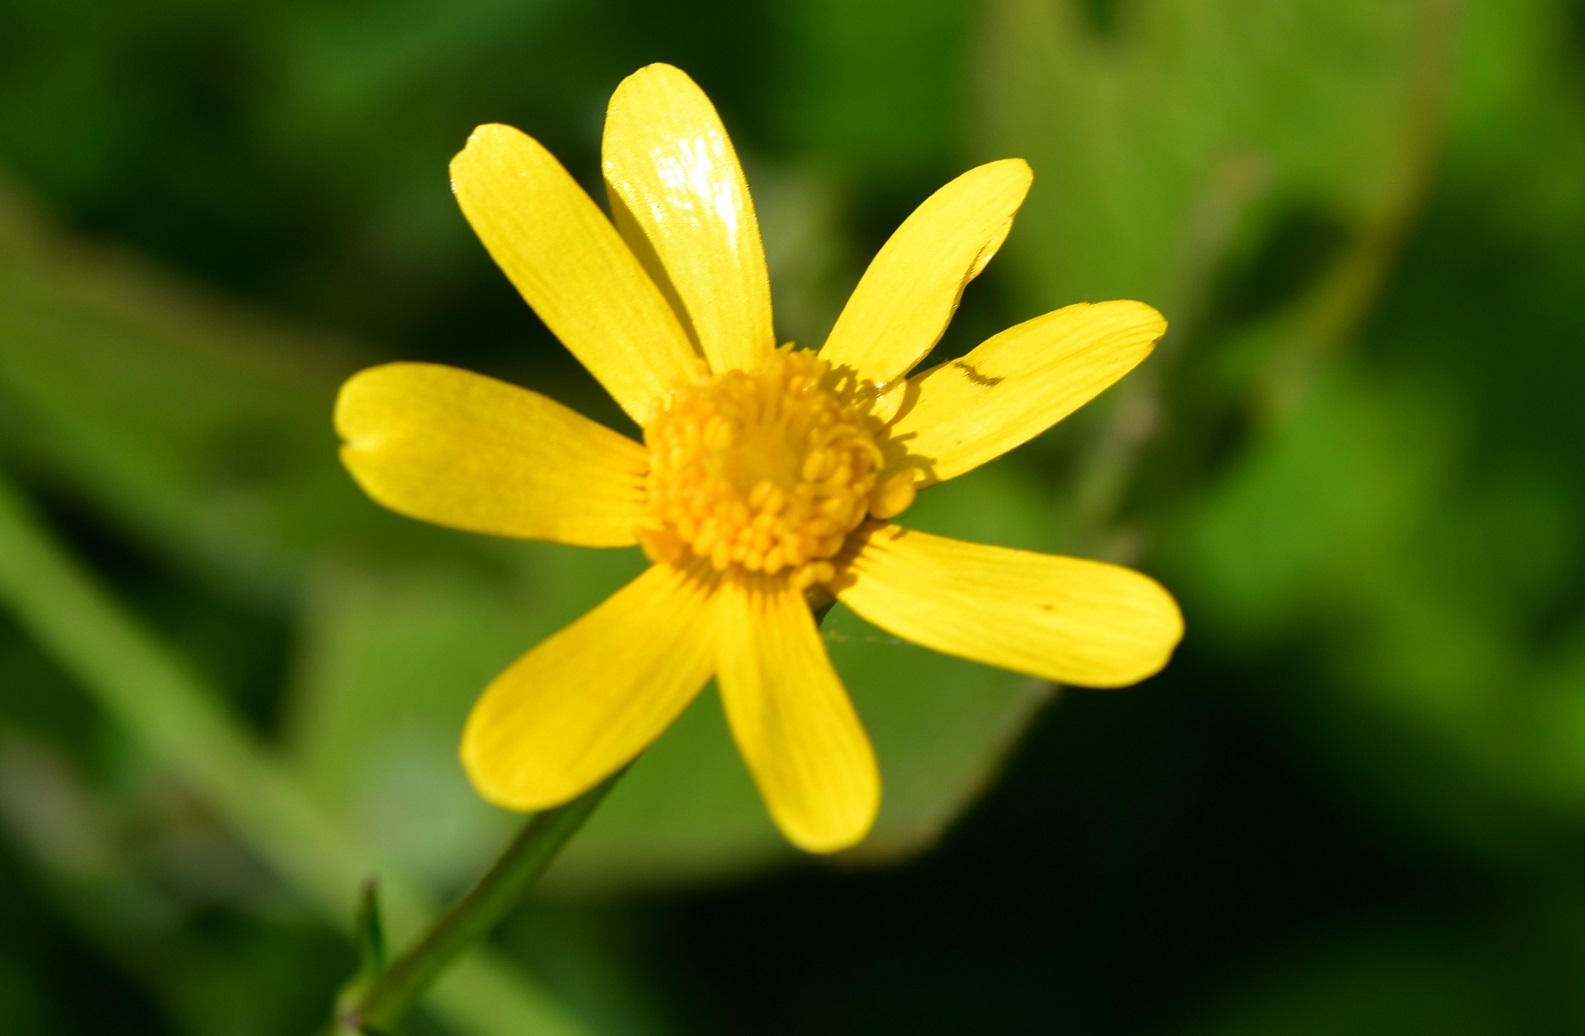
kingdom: Plantae
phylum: Tracheophyta
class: Magnoliopsida
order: Ranunculales
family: Ranunculaceae
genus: Ranunculus
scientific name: Ranunculus petiolaris
